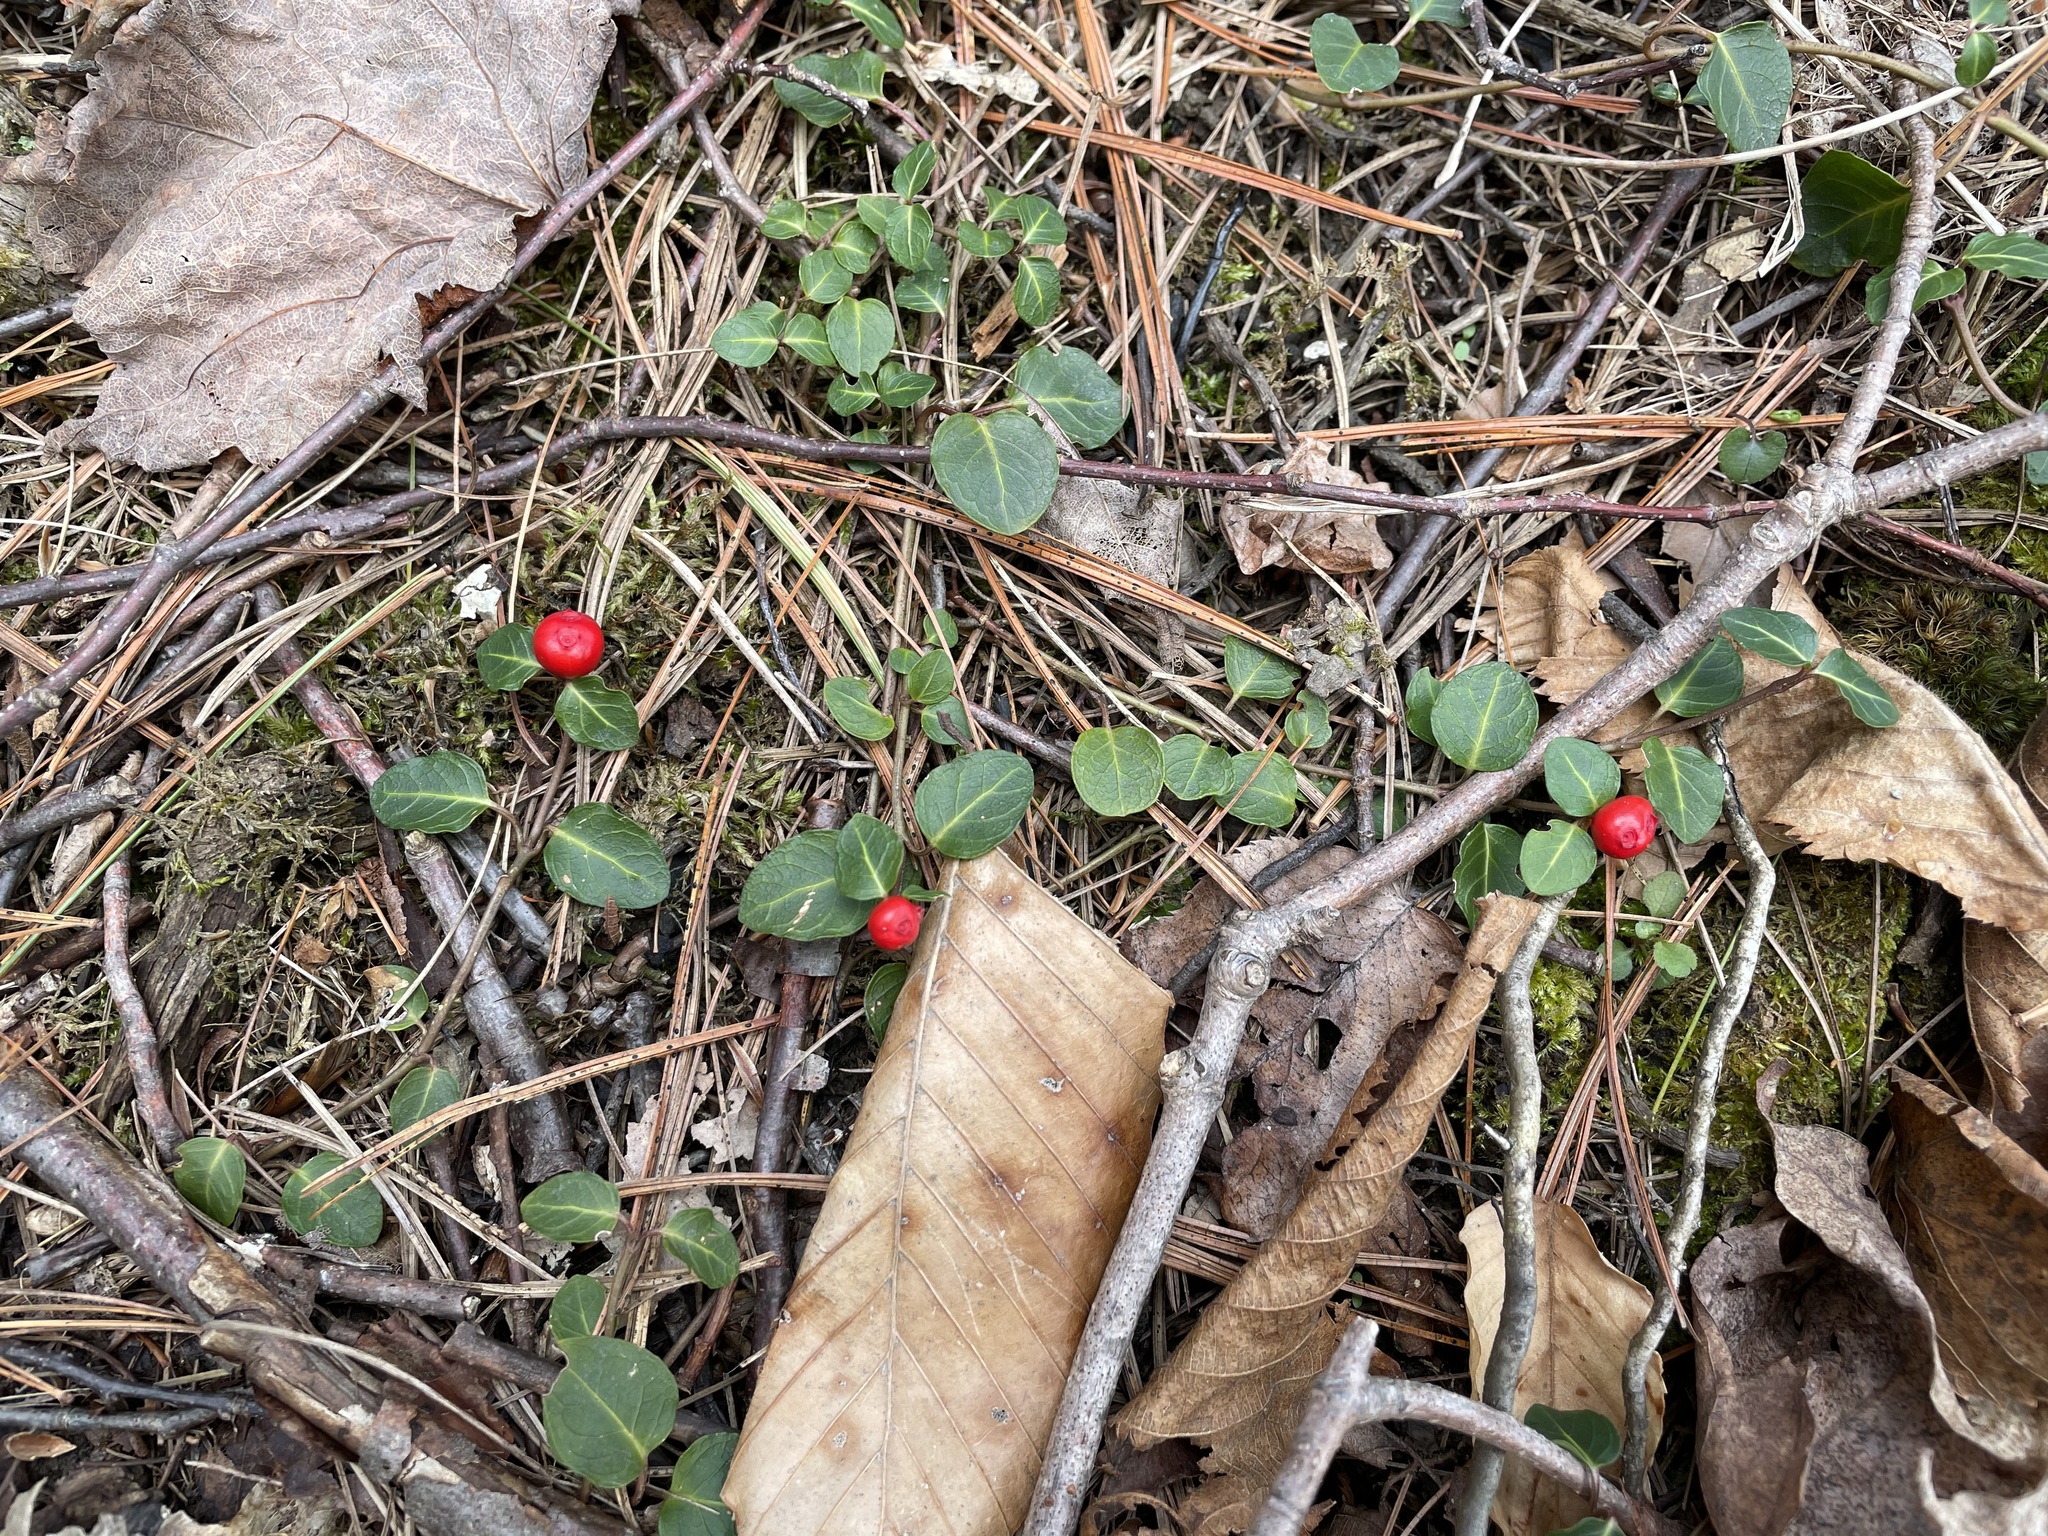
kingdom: Plantae
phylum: Tracheophyta
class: Magnoliopsida
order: Gentianales
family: Rubiaceae
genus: Mitchella
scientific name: Mitchella repens
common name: Partridge-berry
